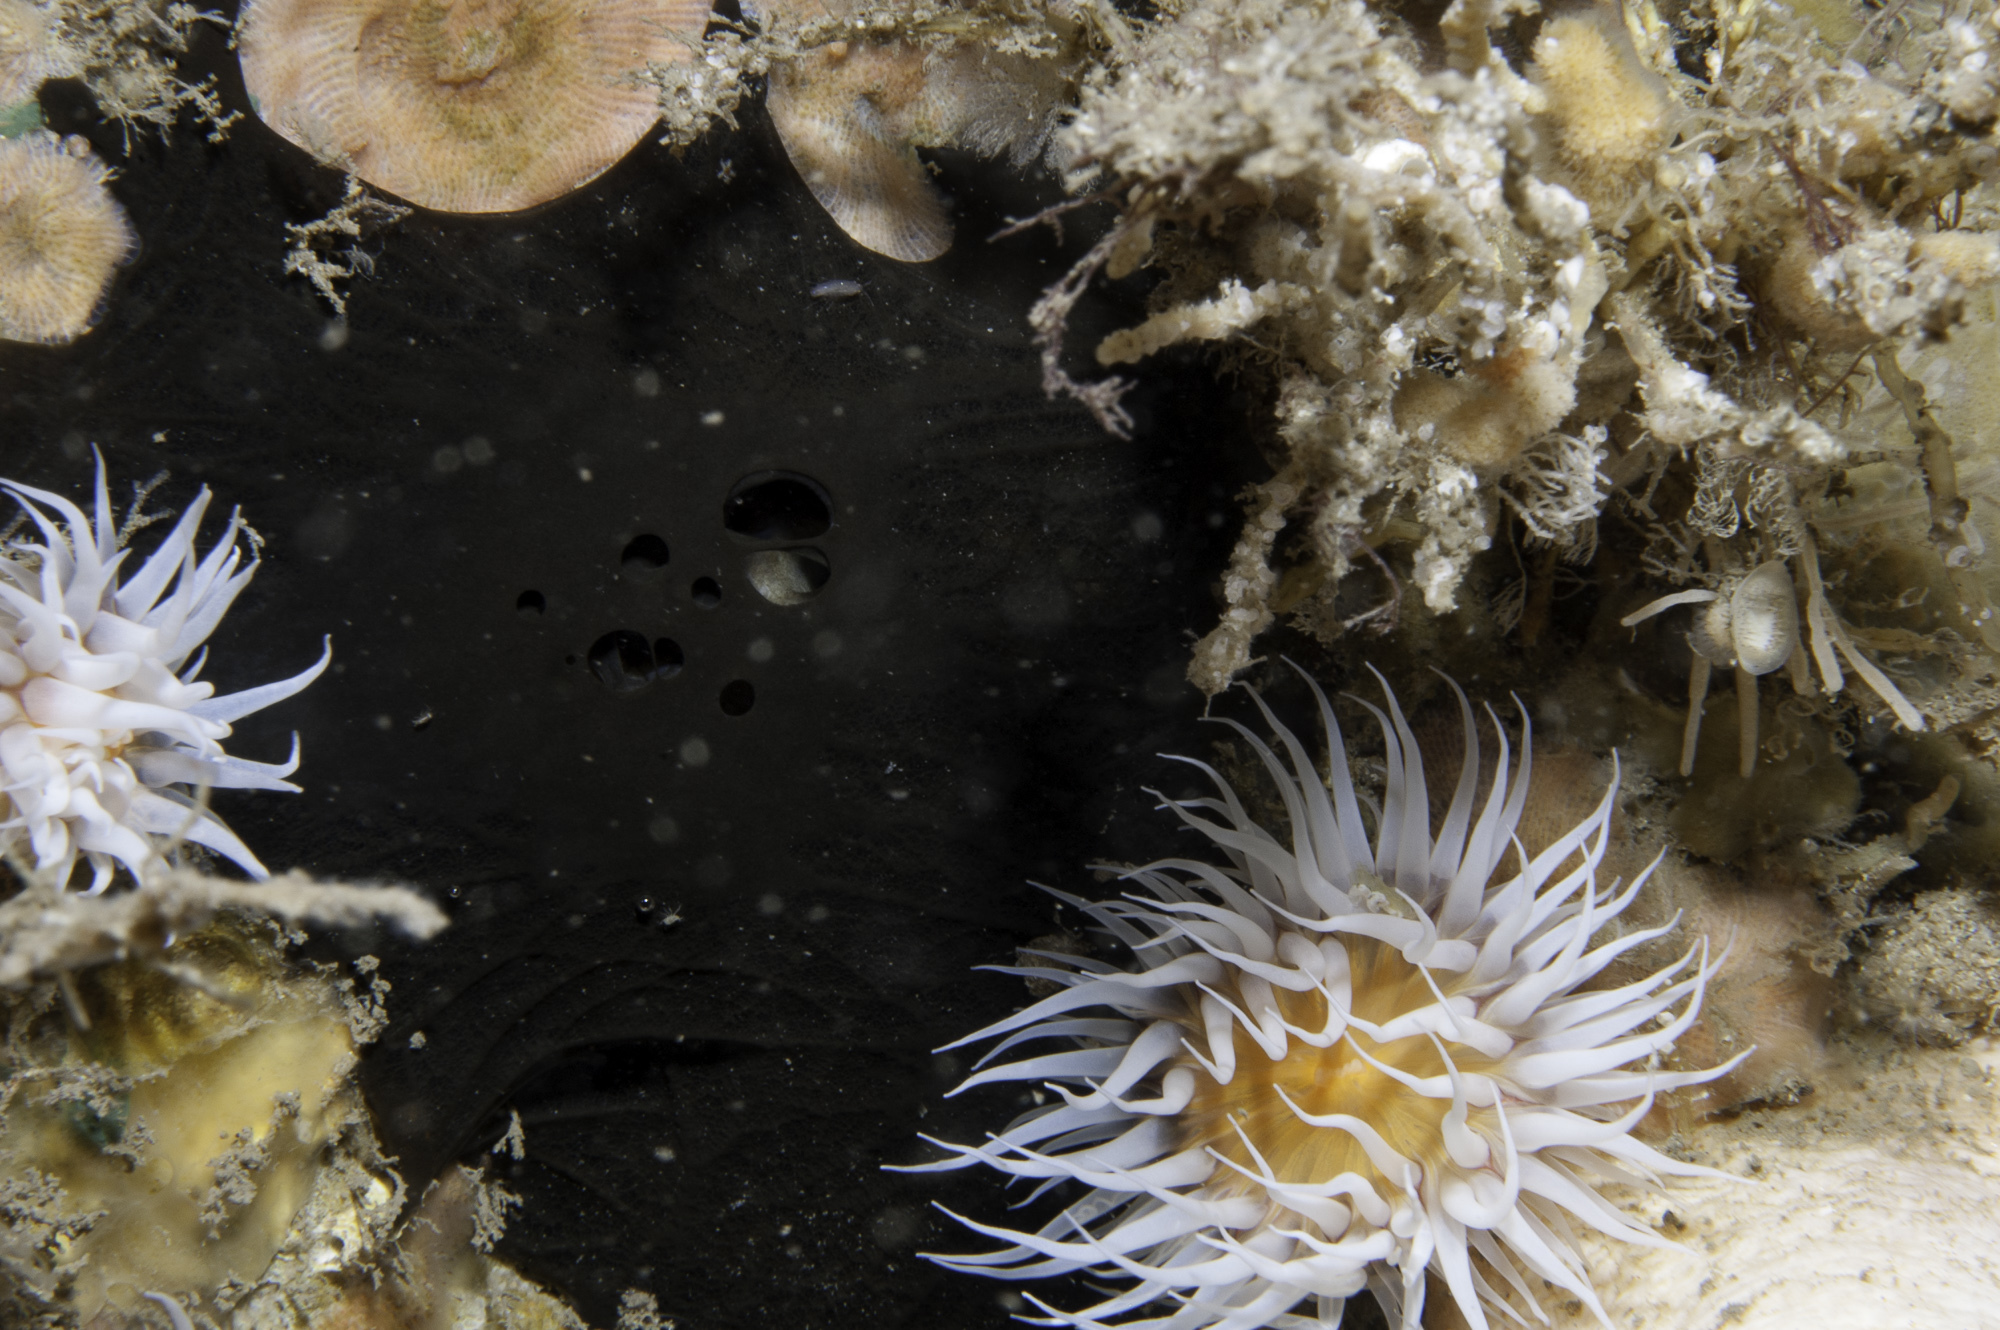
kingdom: Animalia
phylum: Porifera
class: Demospongiae
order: Tetractinellida
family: Ancorinidae
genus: Dercitus
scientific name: Dercitus bucklandi
